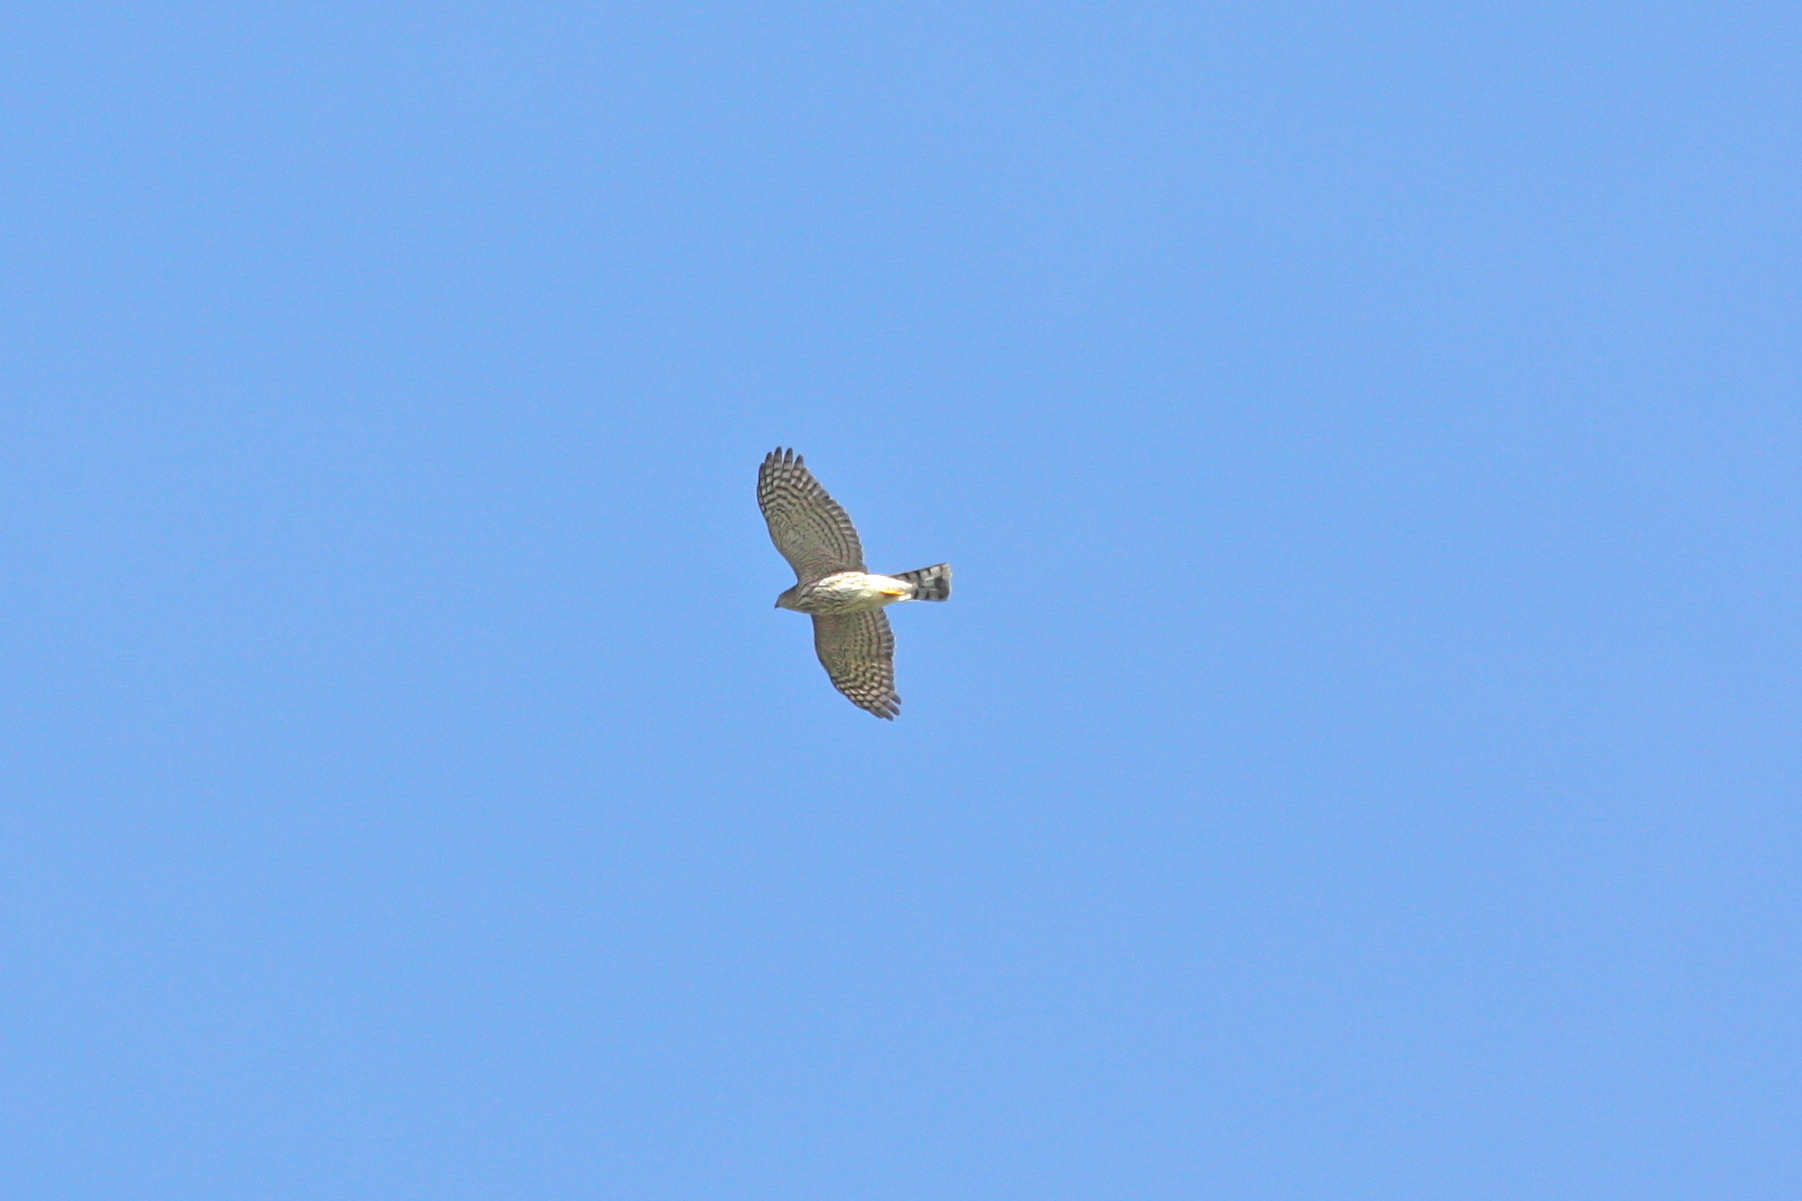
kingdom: Animalia
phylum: Chordata
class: Aves
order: Accipitriformes
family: Accipitridae
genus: Accipiter
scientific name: Accipiter striatus
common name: Sharp-shinned hawk
